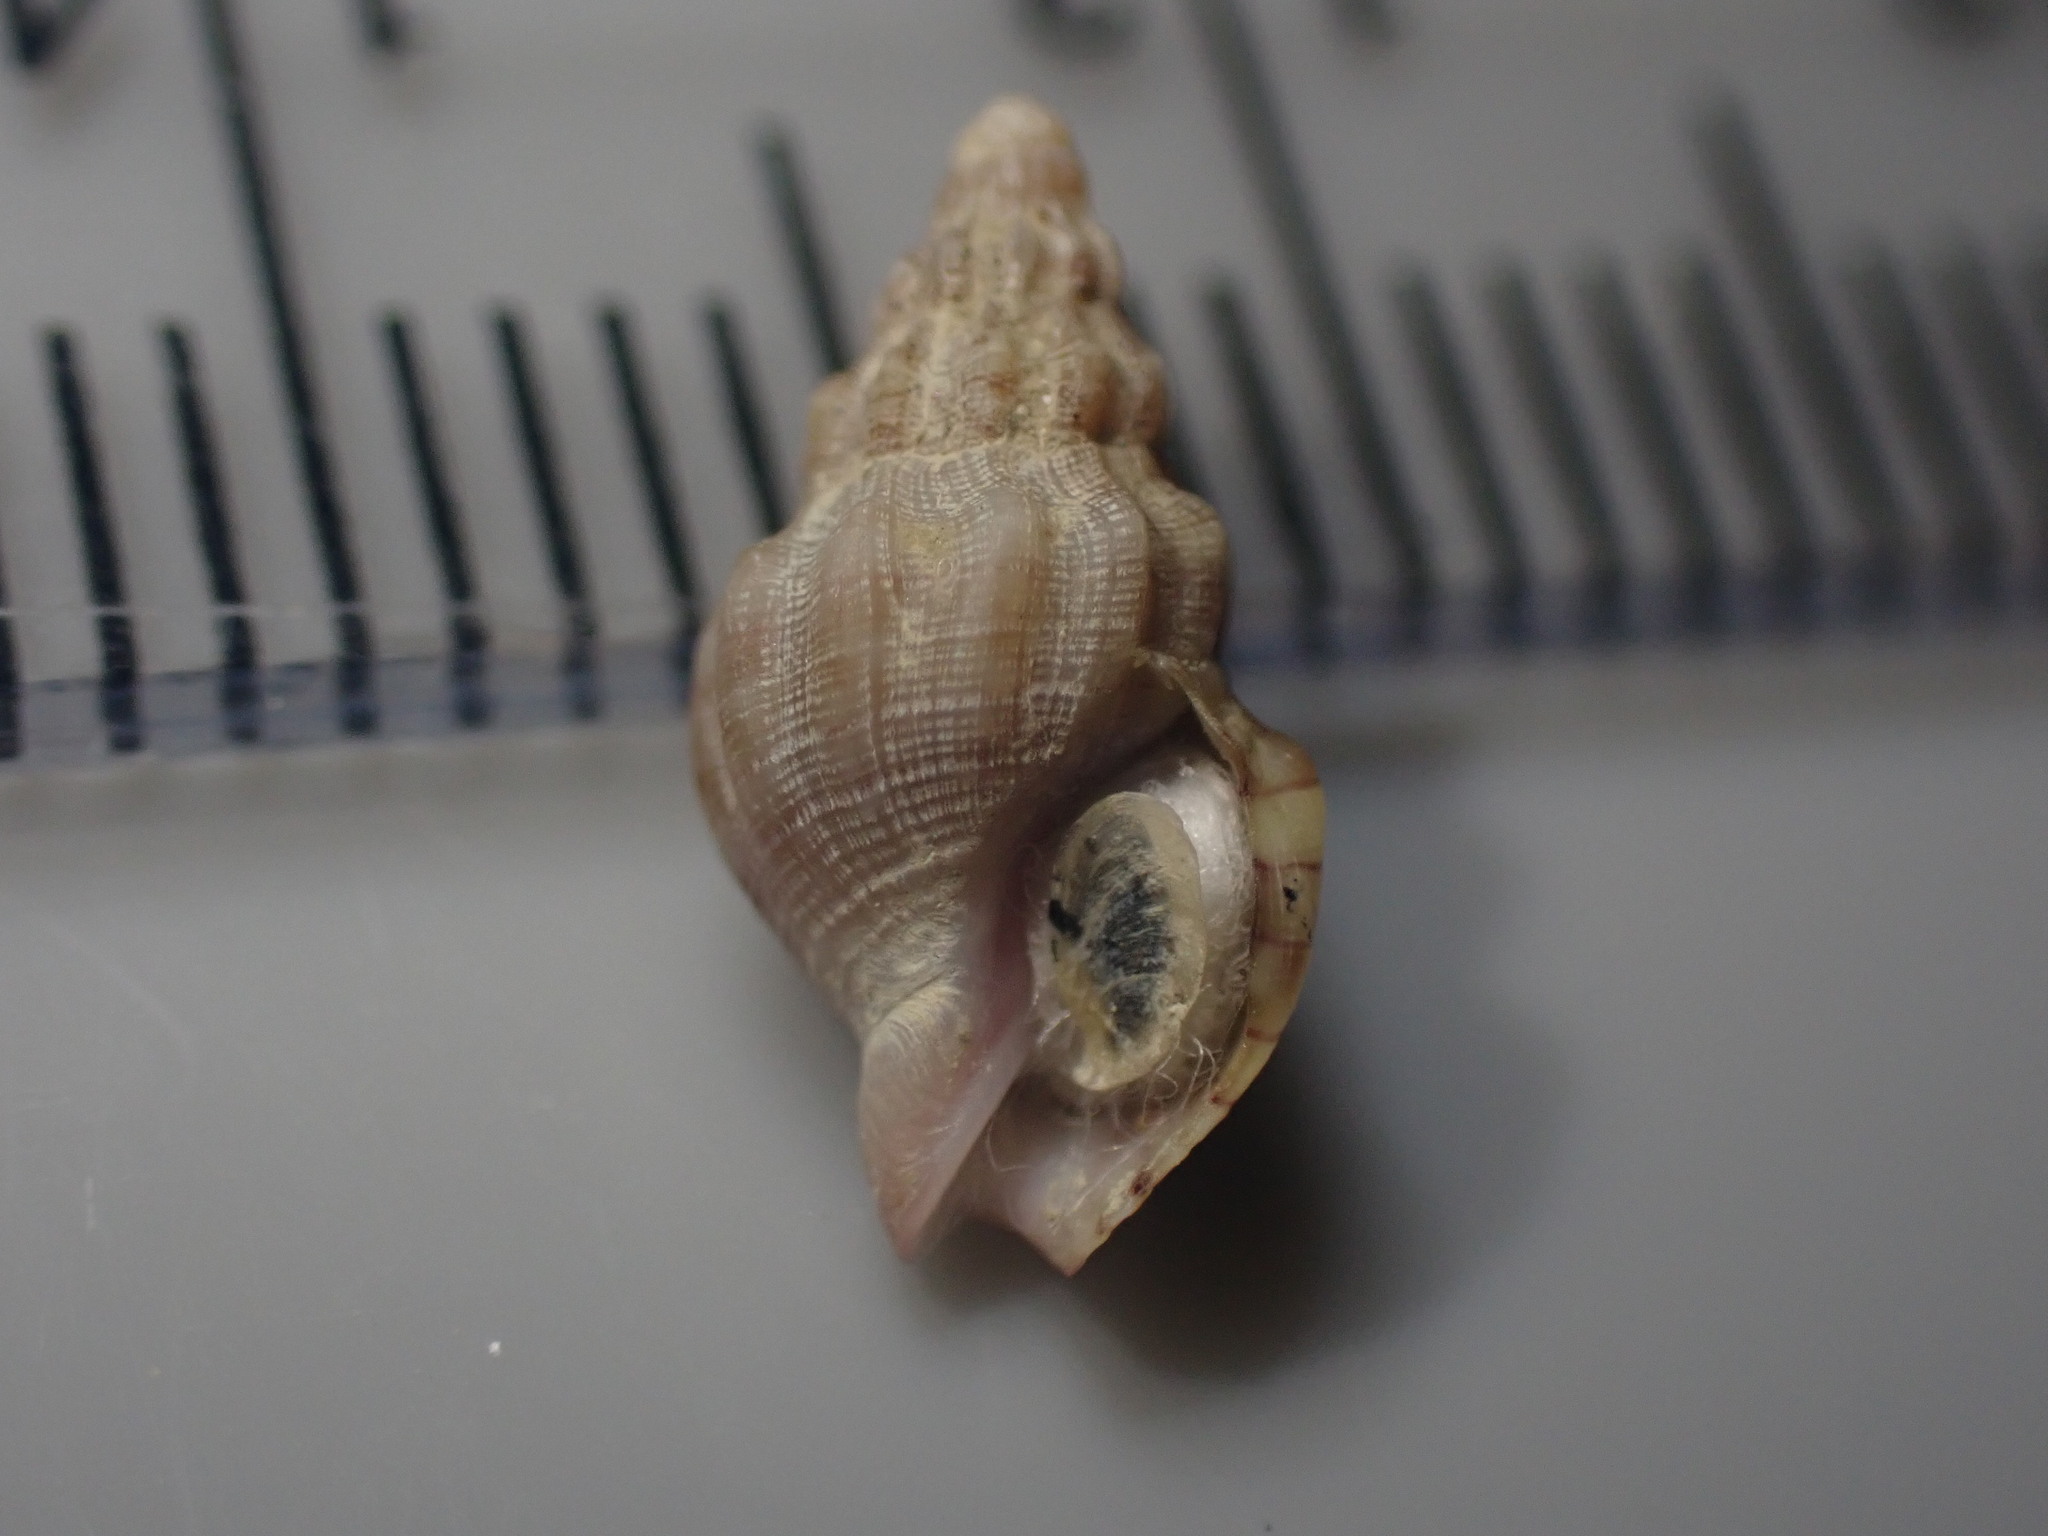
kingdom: Animalia
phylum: Mollusca
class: Gastropoda
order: Neogastropoda
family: Cominellidae
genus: Cominella
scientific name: Cominella quoyana
